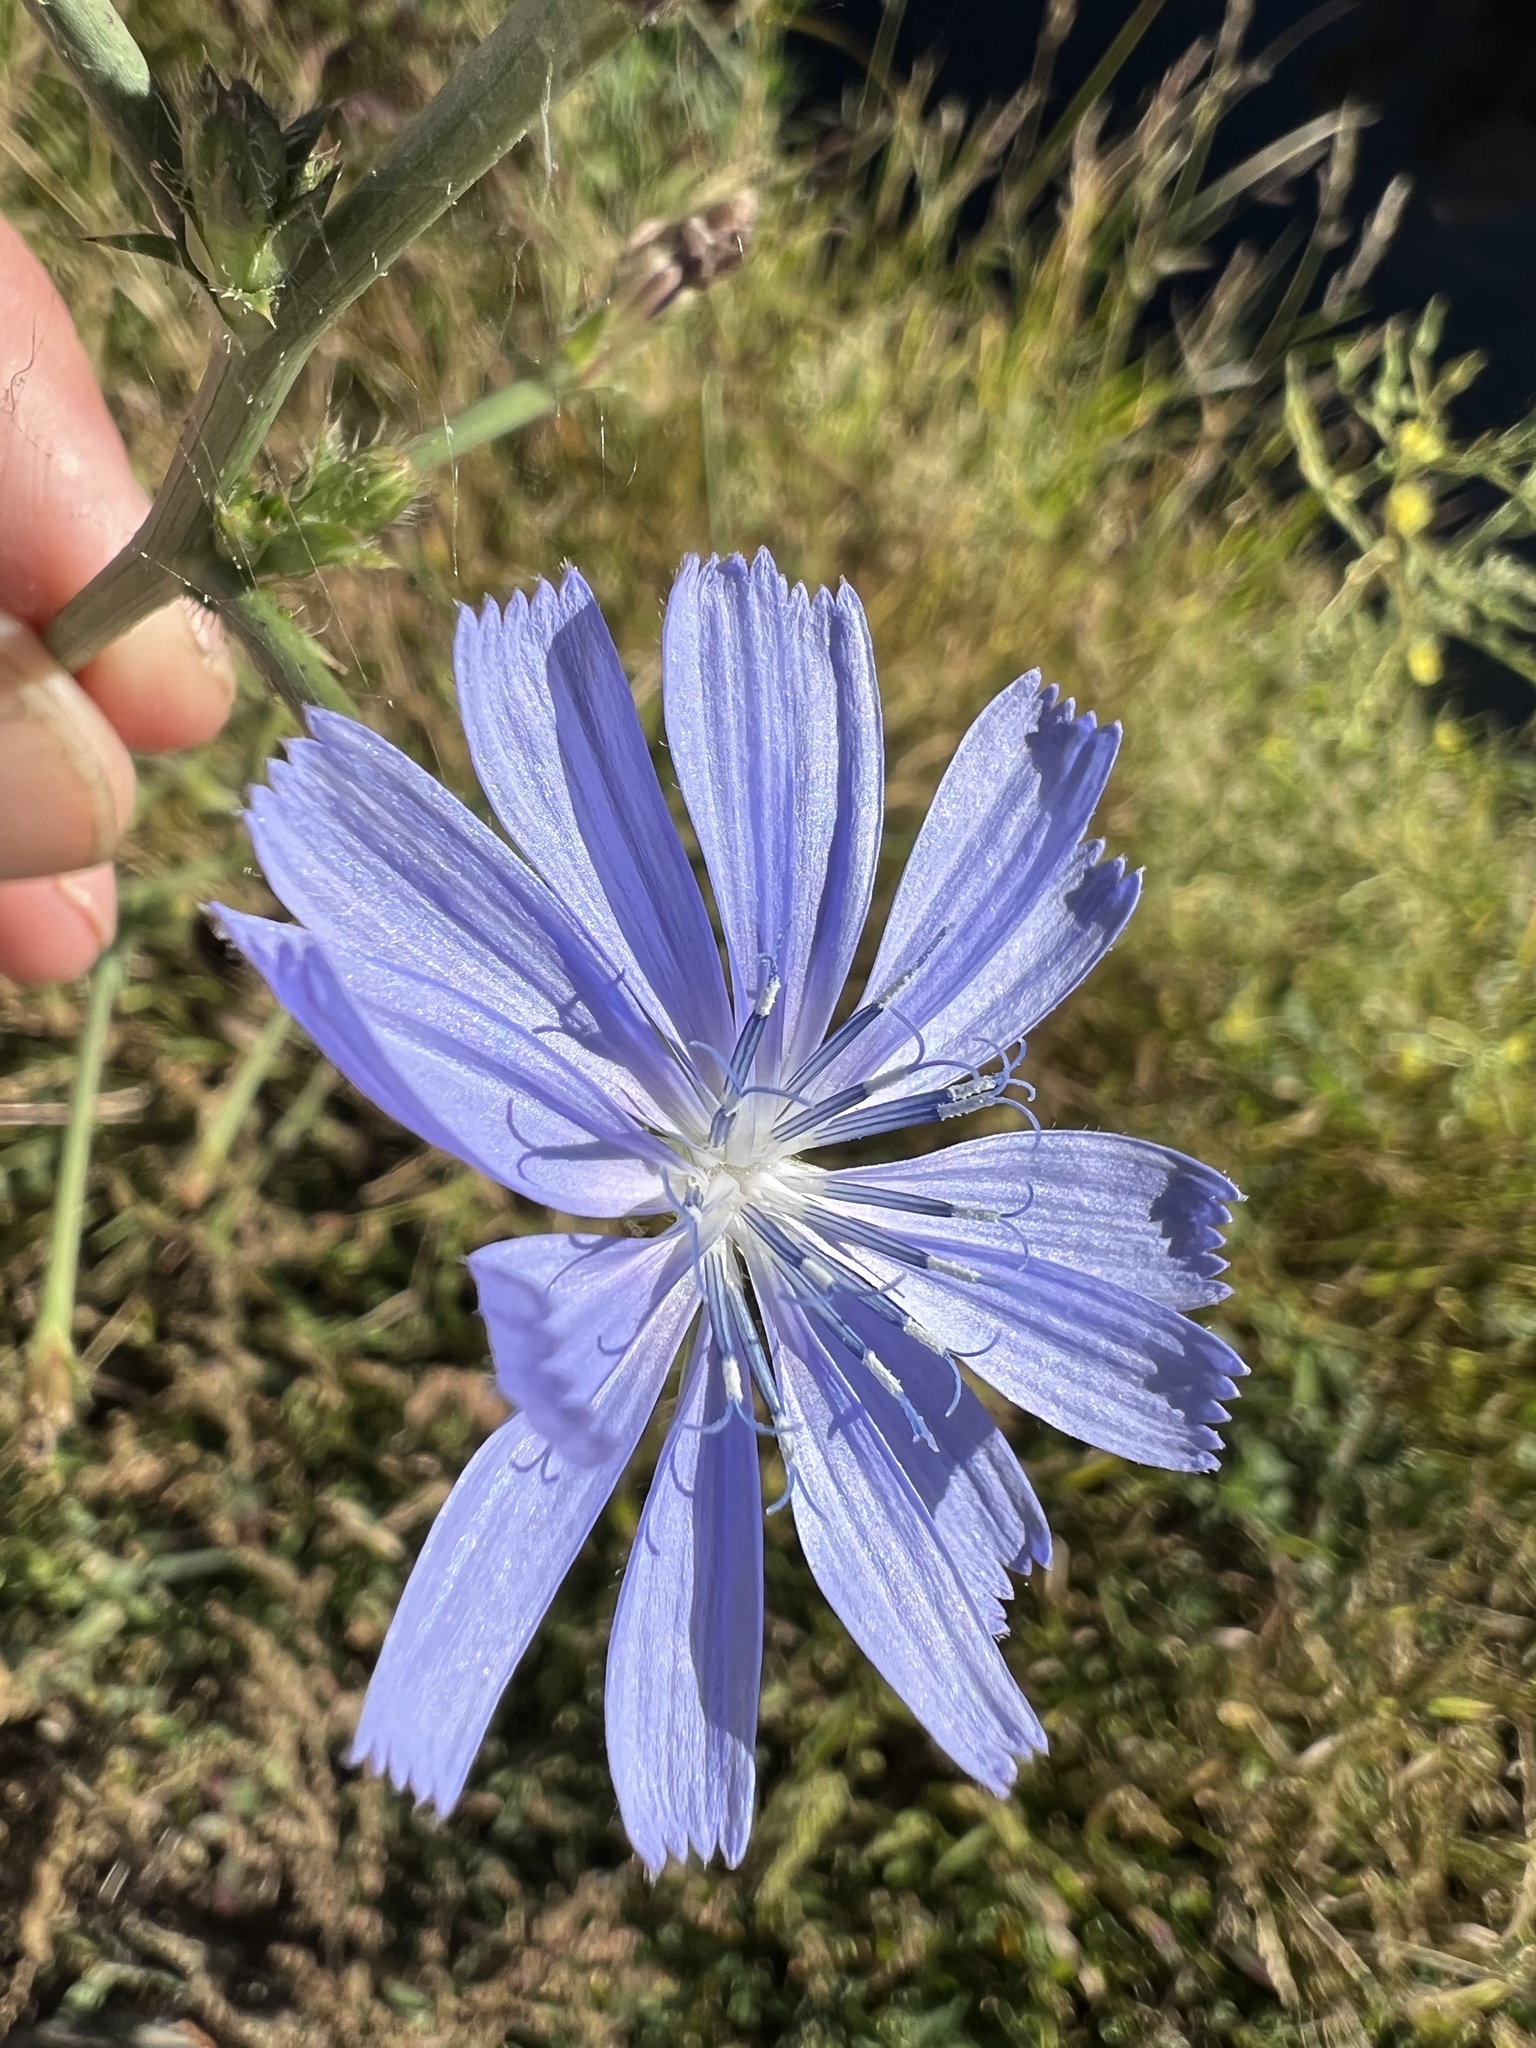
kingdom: Plantae
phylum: Tracheophyta
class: Magnoliopsida
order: Asterales
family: Asteraceae
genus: Cichorium
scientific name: Cichorium intybus
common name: Chicory
